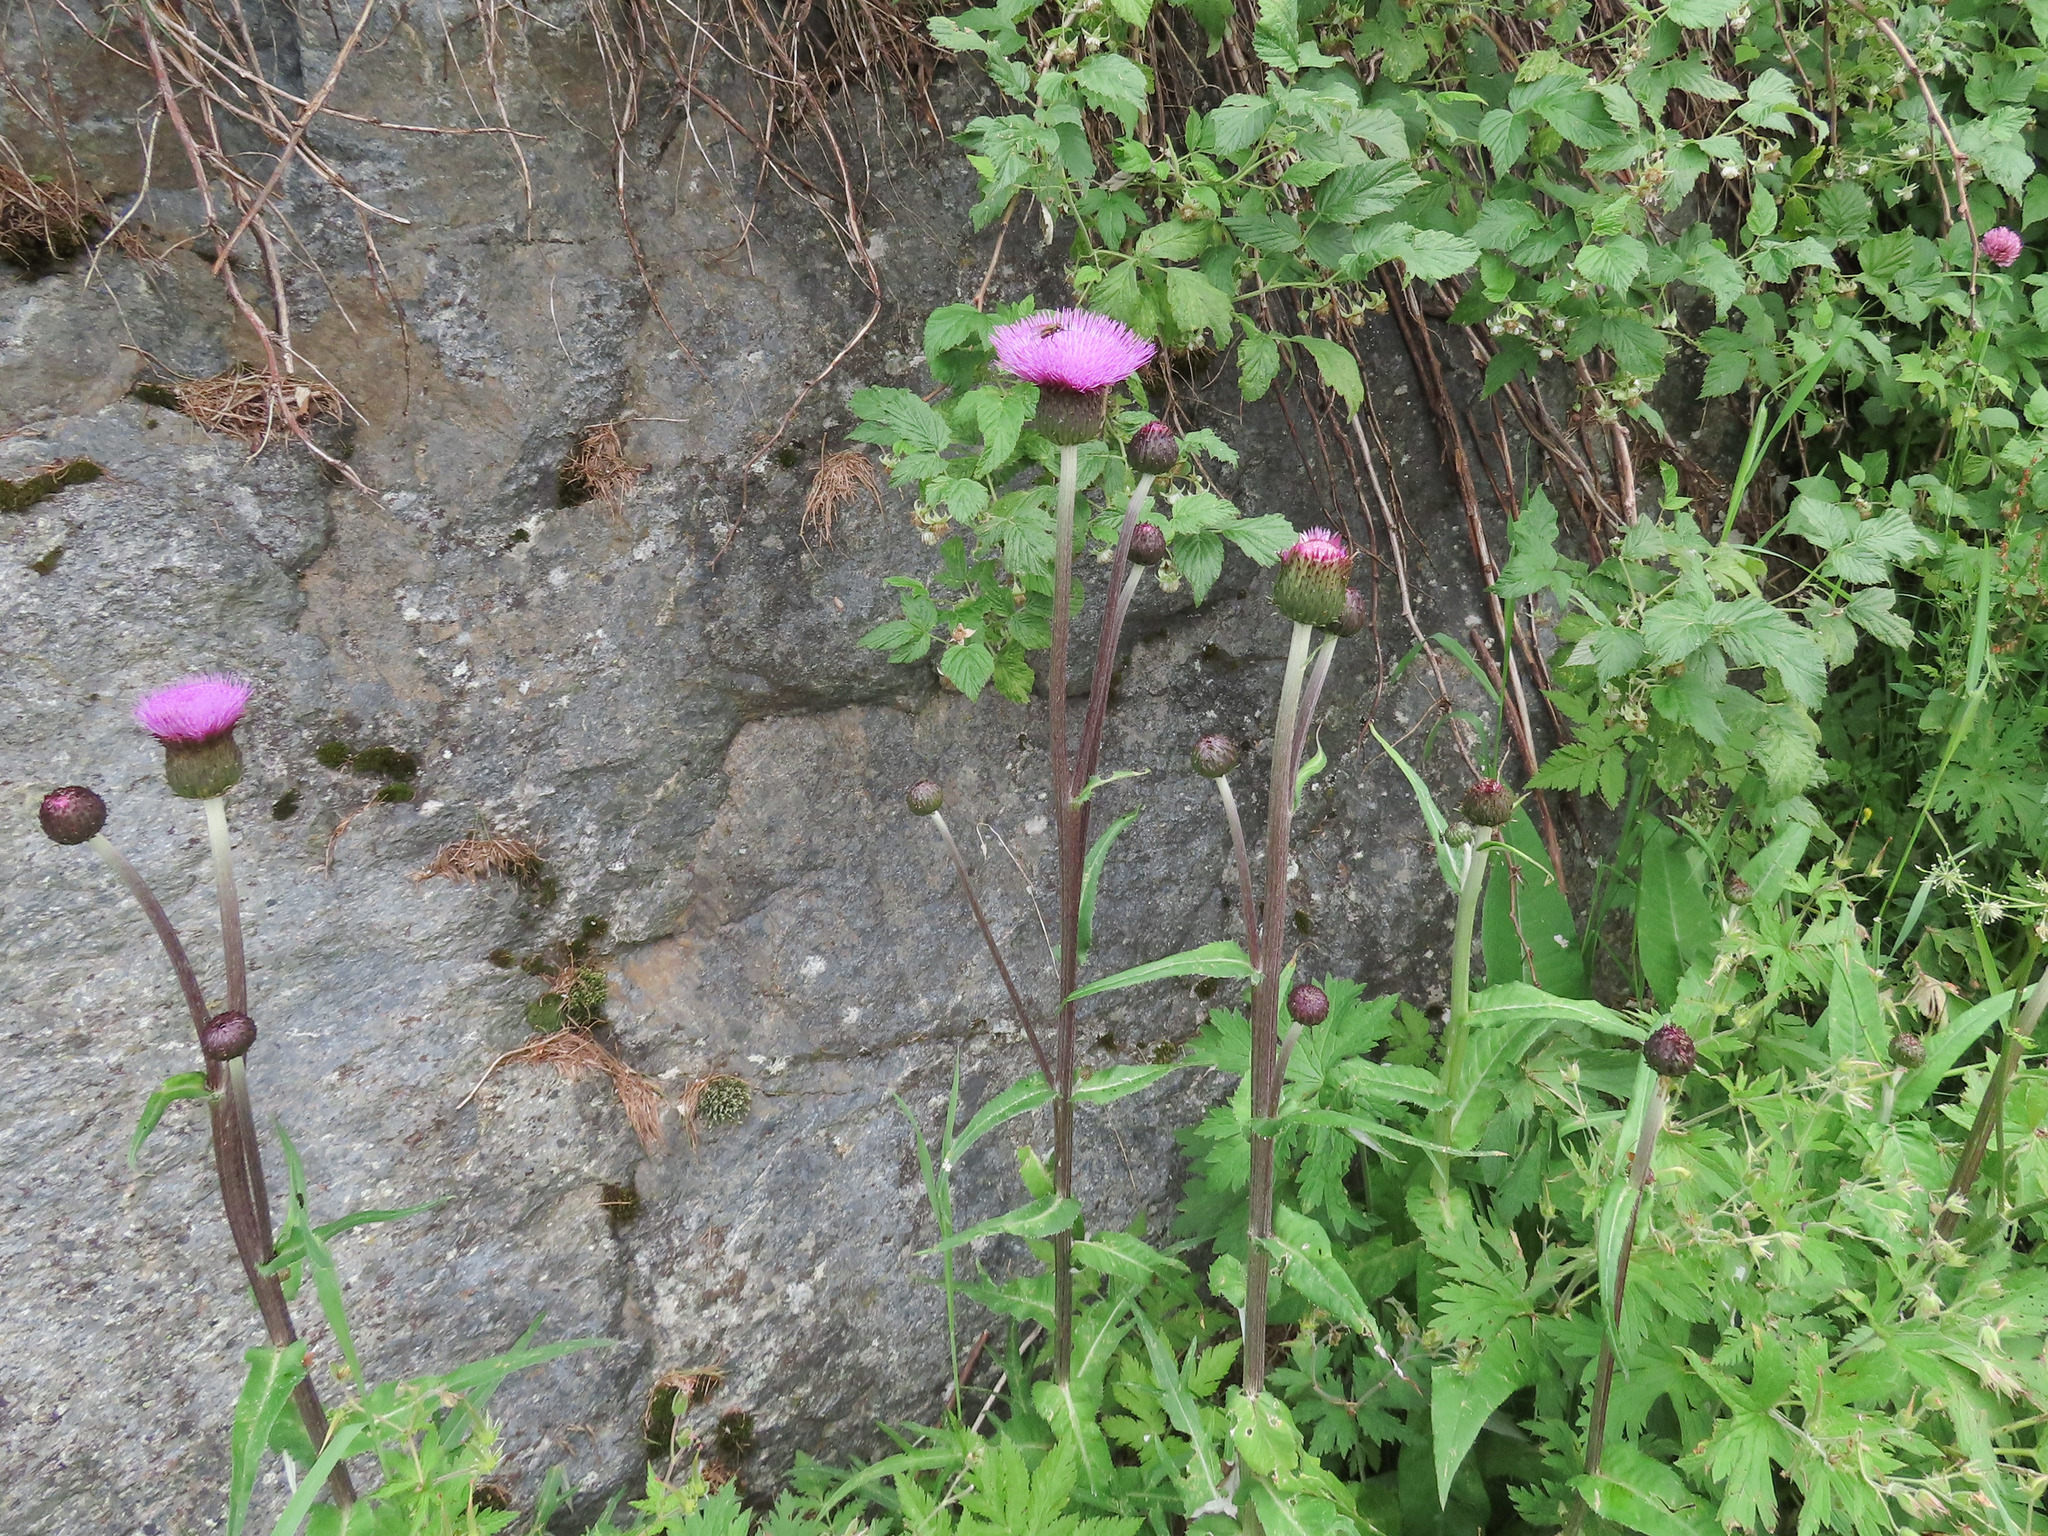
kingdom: Plantae
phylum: Tracheophyta
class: Magnoliopsida
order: Asterales
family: Asteraceae
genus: Cirsium
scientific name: Cirsium heterophyllum
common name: Melancholy thistle
